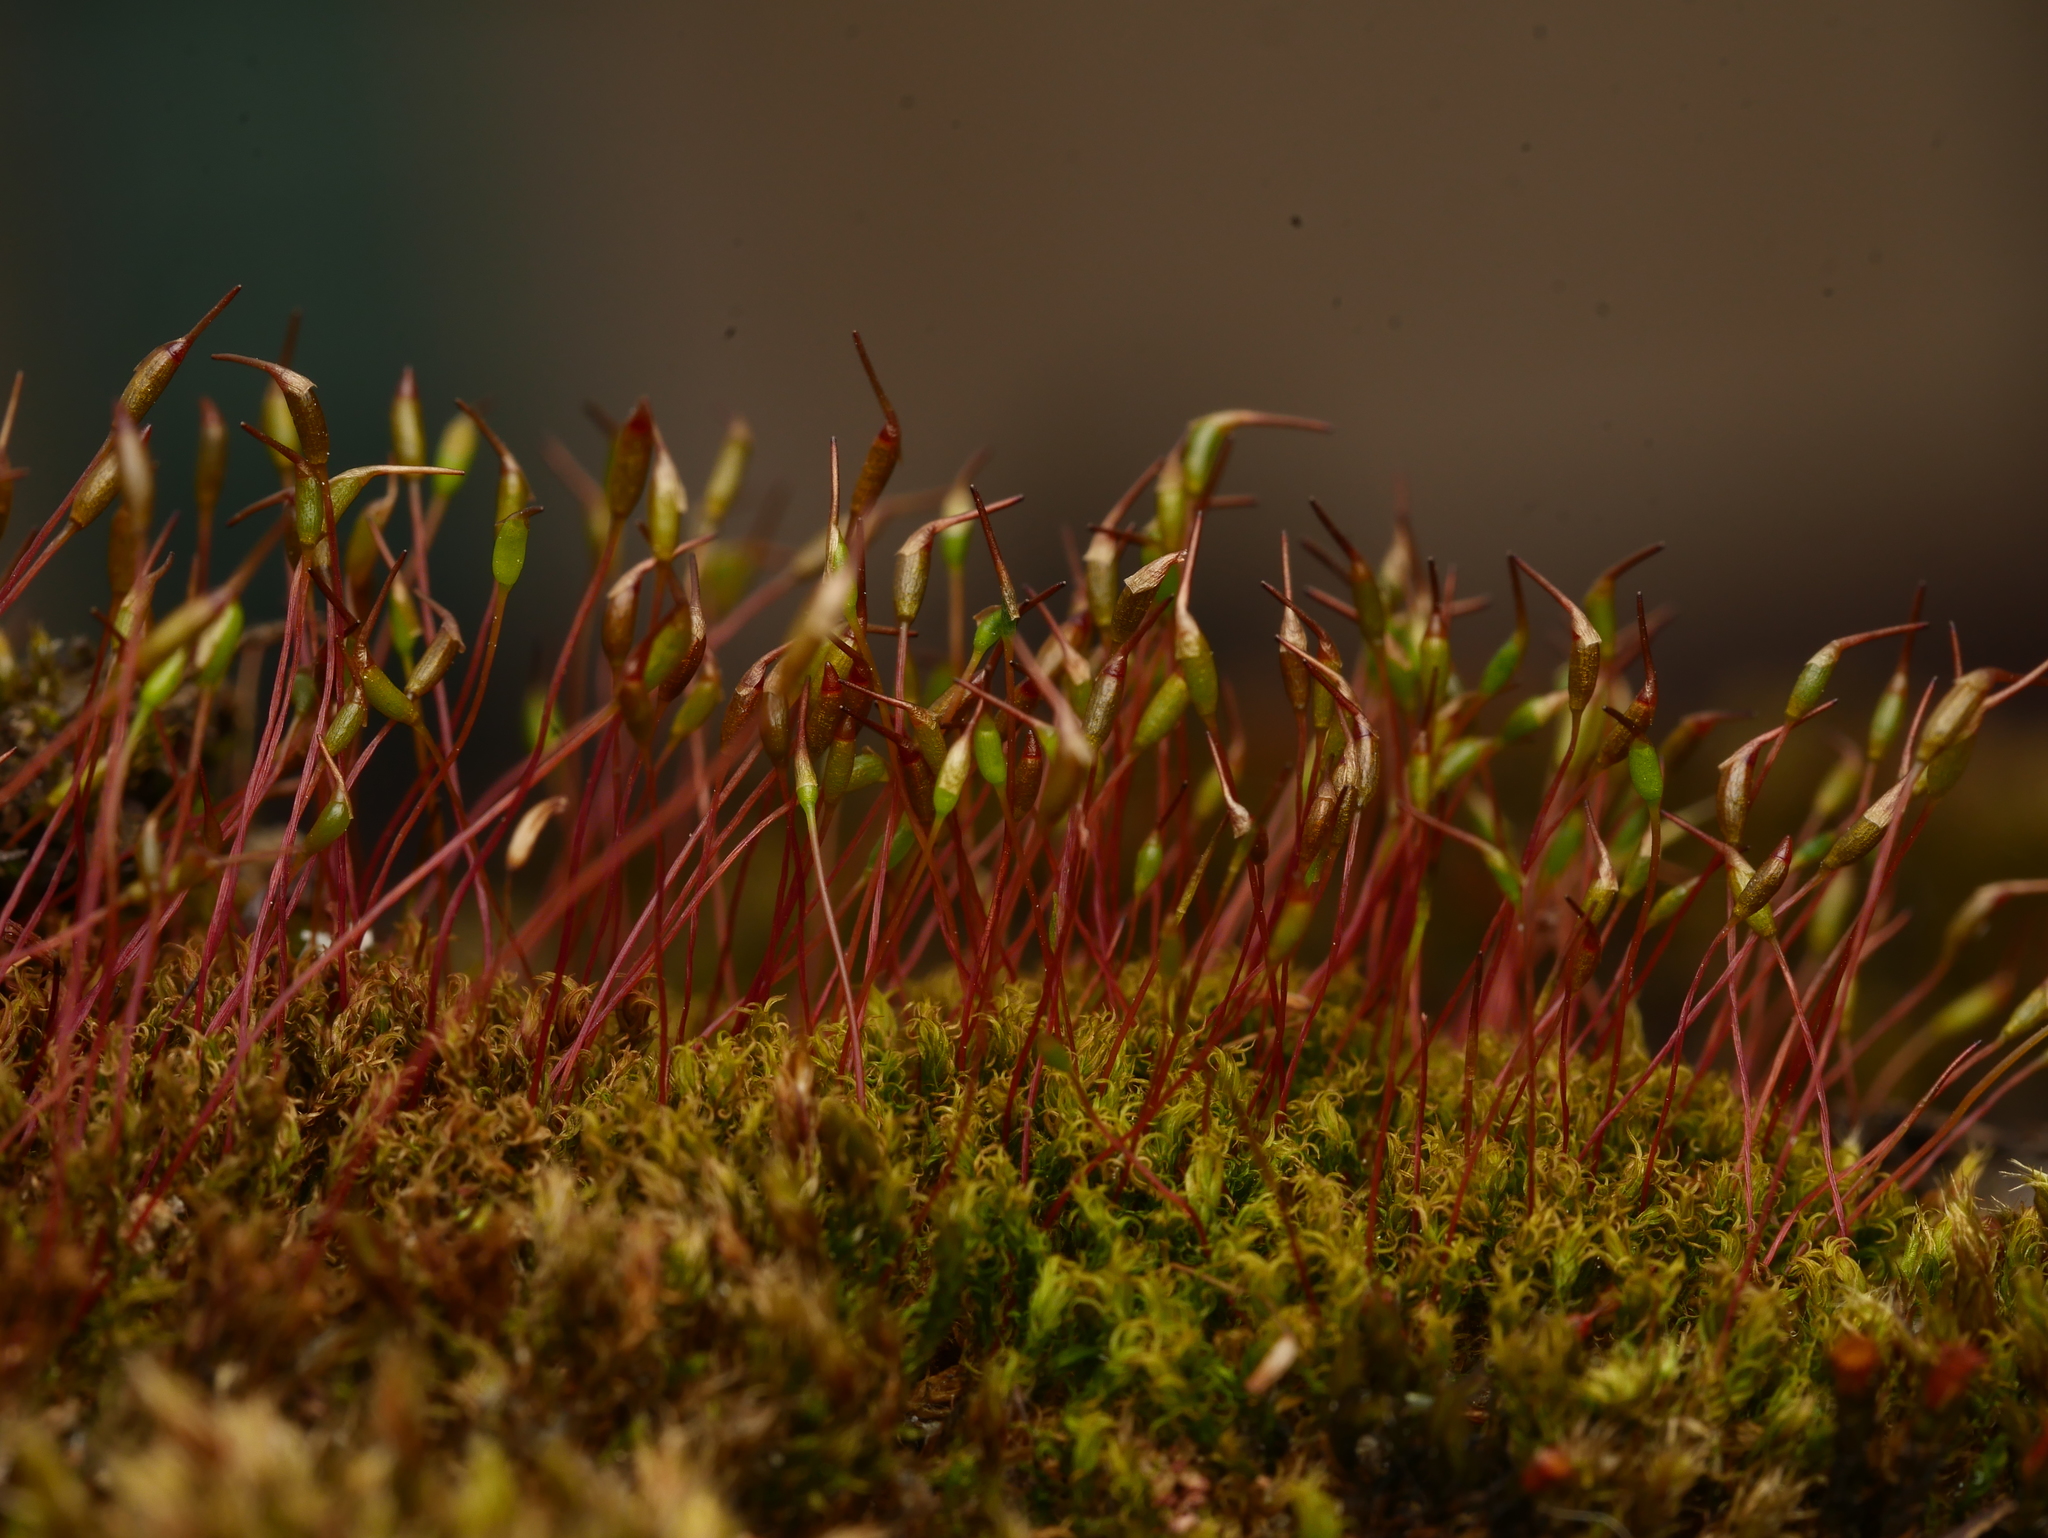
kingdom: Plantae
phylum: Bryophyta
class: Bryopsida
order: Dicranales
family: Ditrichaceae
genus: Ceratodon
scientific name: Ceratodon purpureus
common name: Redshank
